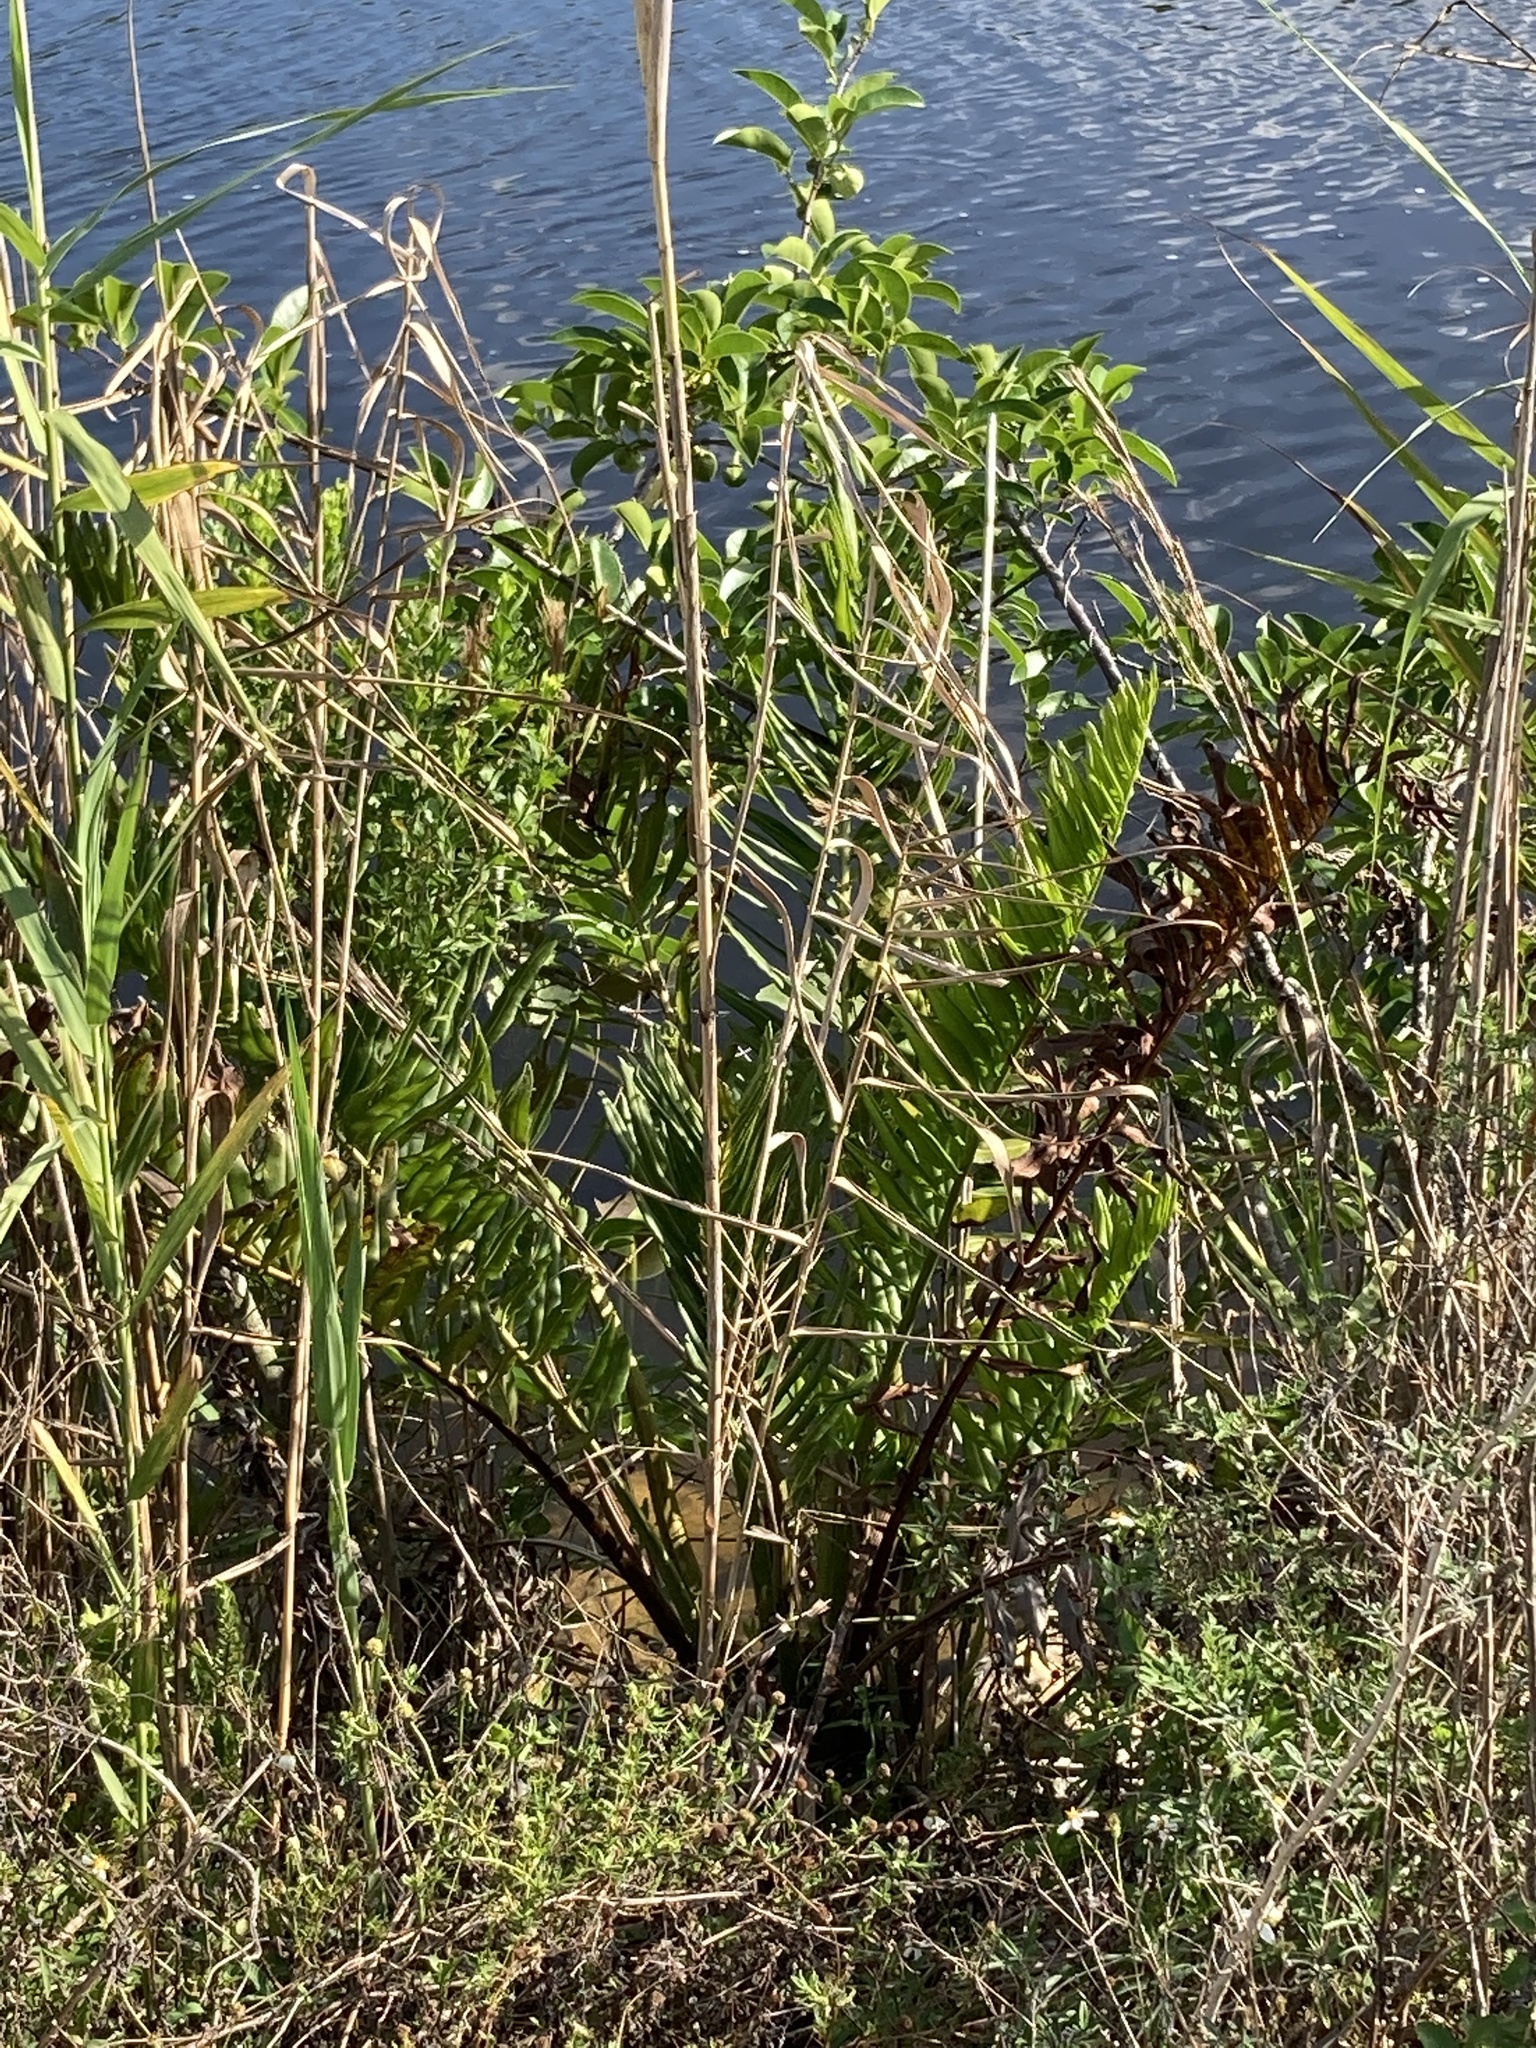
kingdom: Plantae
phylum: Tracheophyta
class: Polypodiopsida
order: Polypodiales
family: Pteridaceae
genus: Acrostichum
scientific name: Acrostichum danaeifolium
